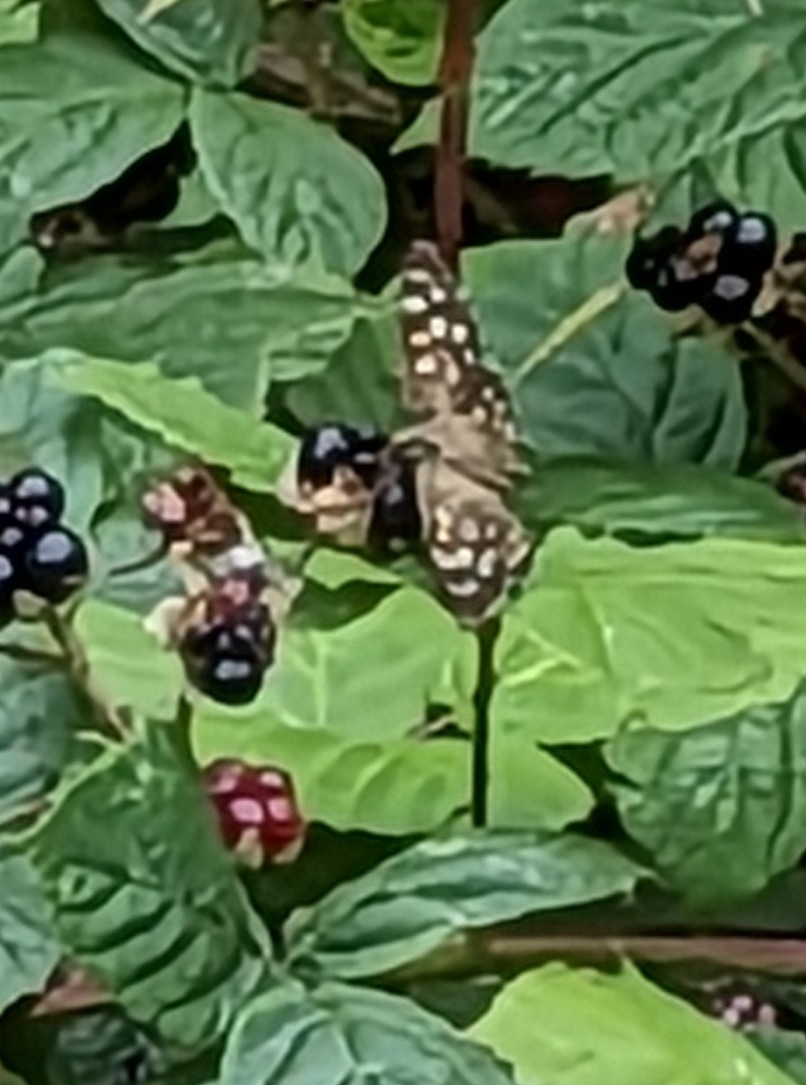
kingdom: Animalia
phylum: Arthropoda
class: Insecta
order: Lepidoptera
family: Nymphalidae
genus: Pararge
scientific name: Pararge aegeria
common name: Speckled wood
